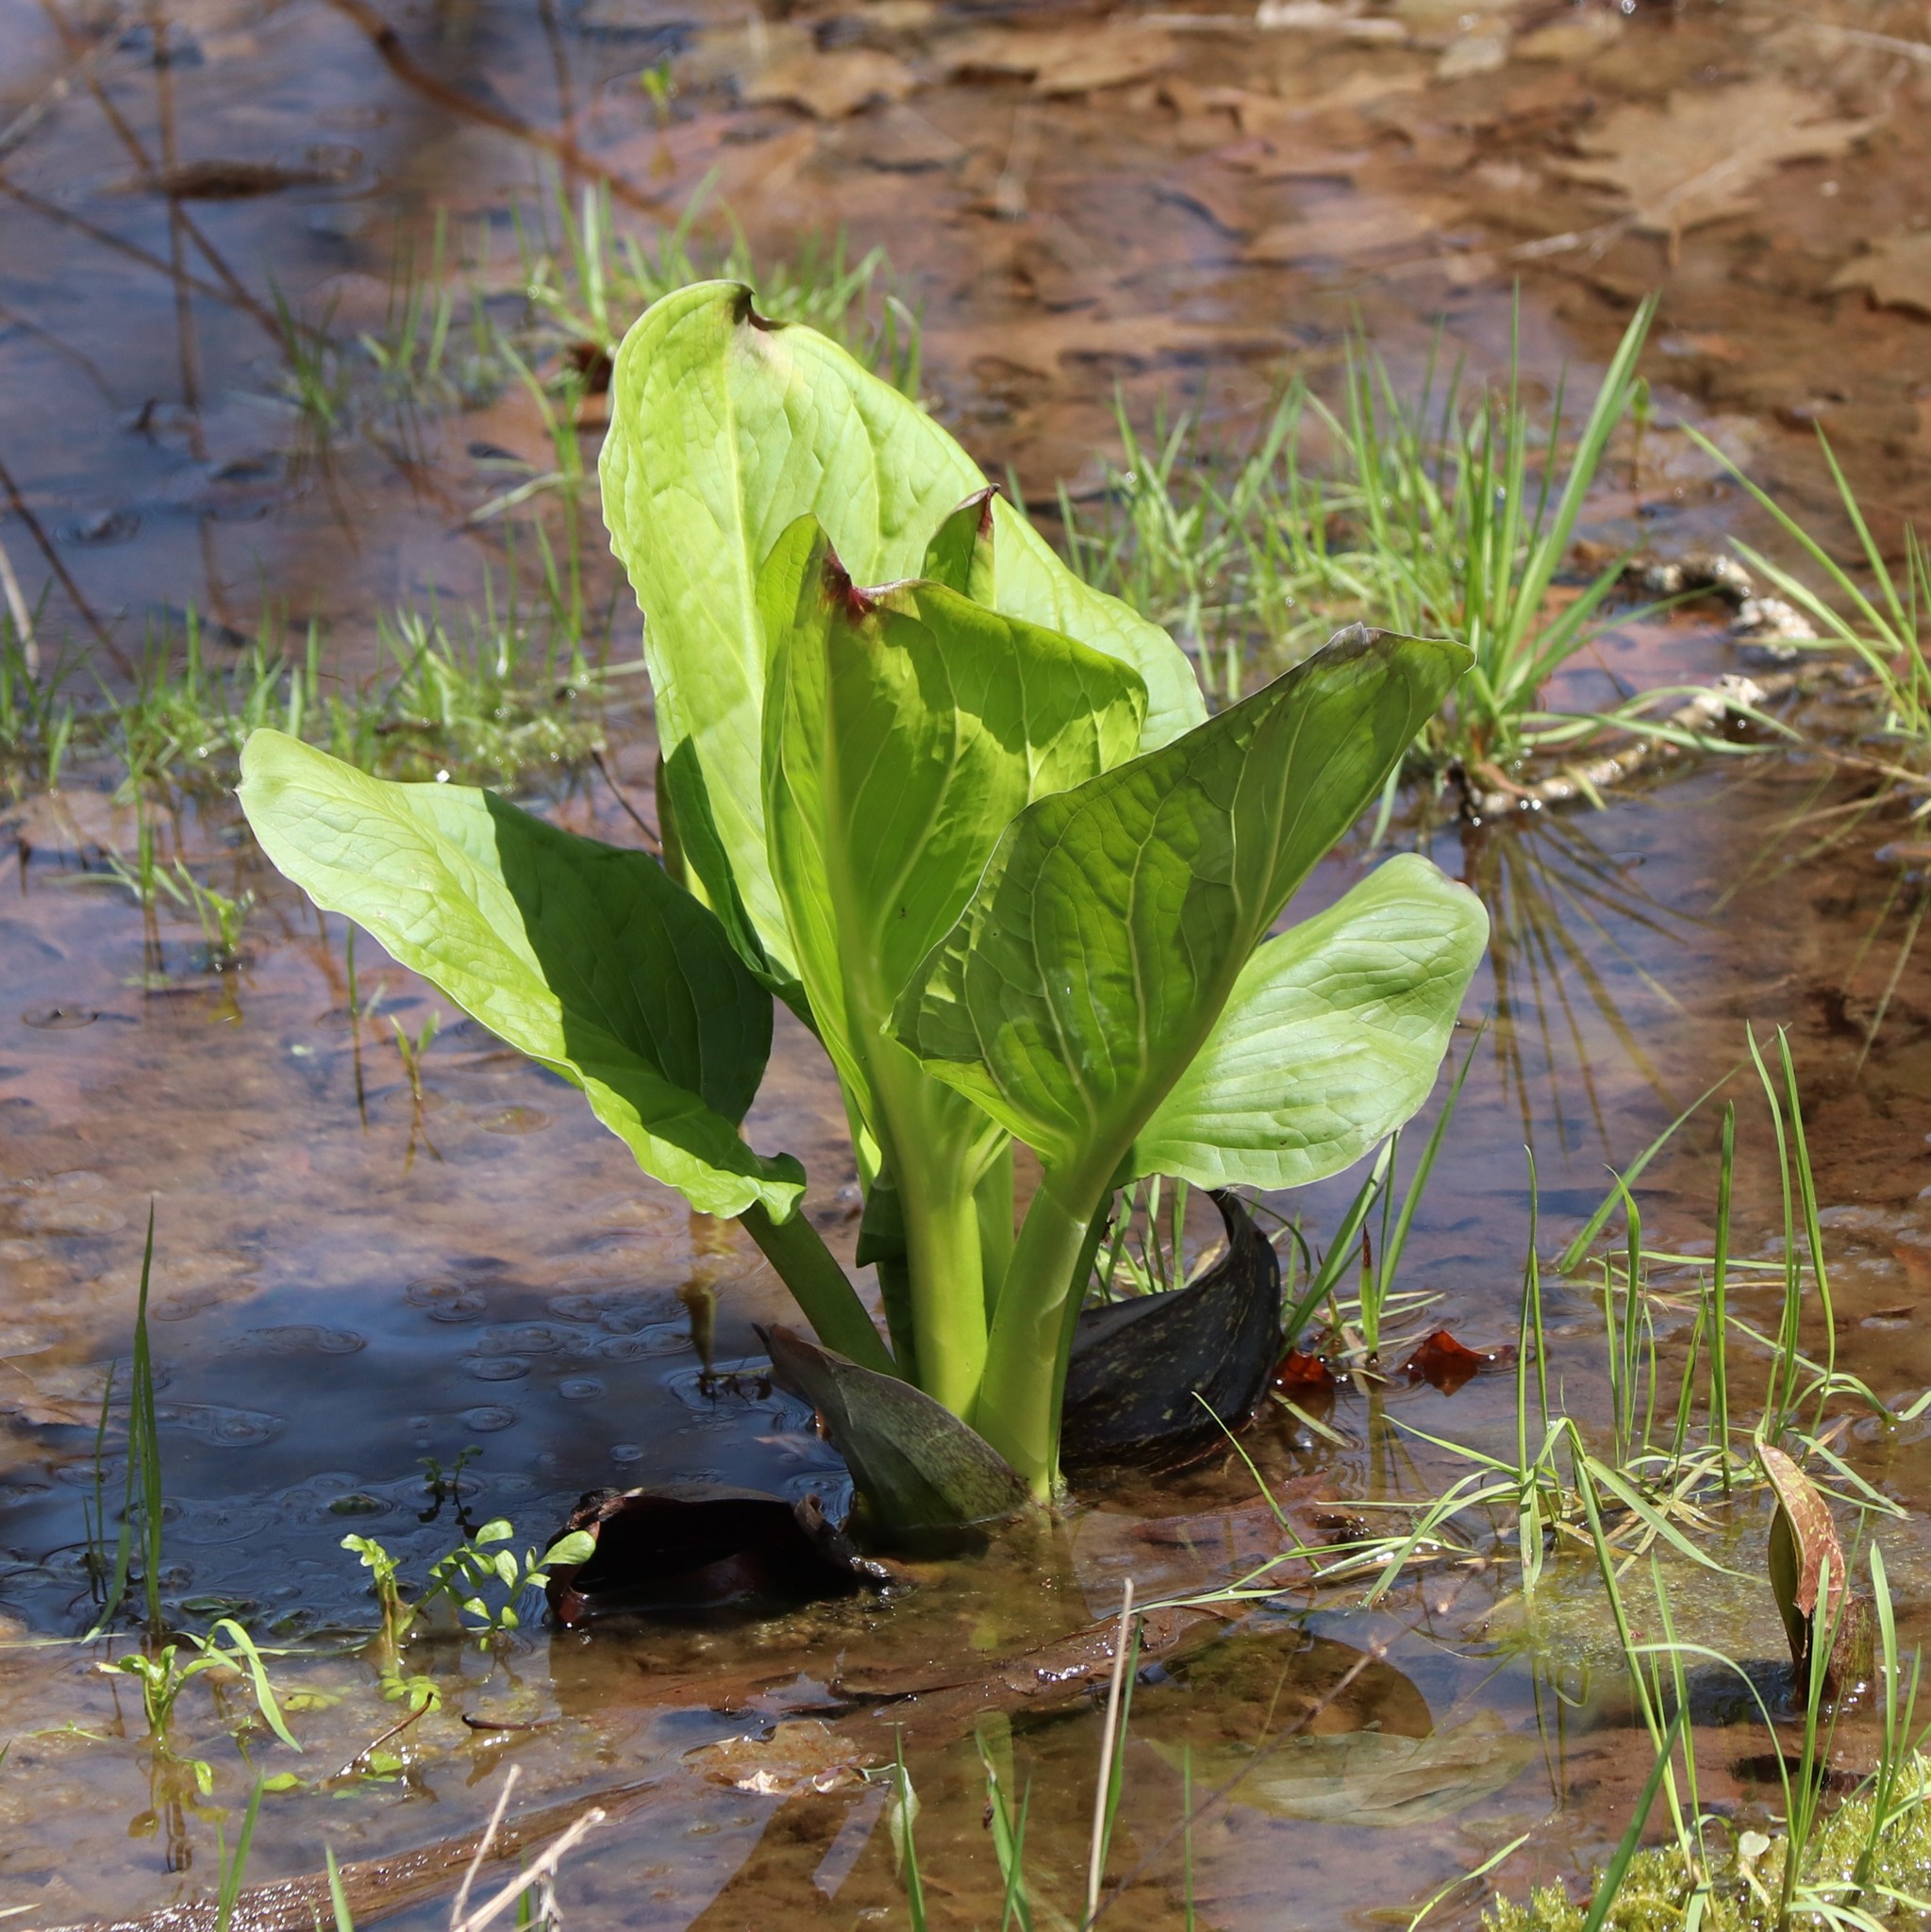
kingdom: Plantae
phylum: Tracheophyta
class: Liliopsida
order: Alismatales
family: Araceae
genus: Symplocarpus
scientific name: Symplocarpus foetidus
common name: Eastern skunk cabbage
